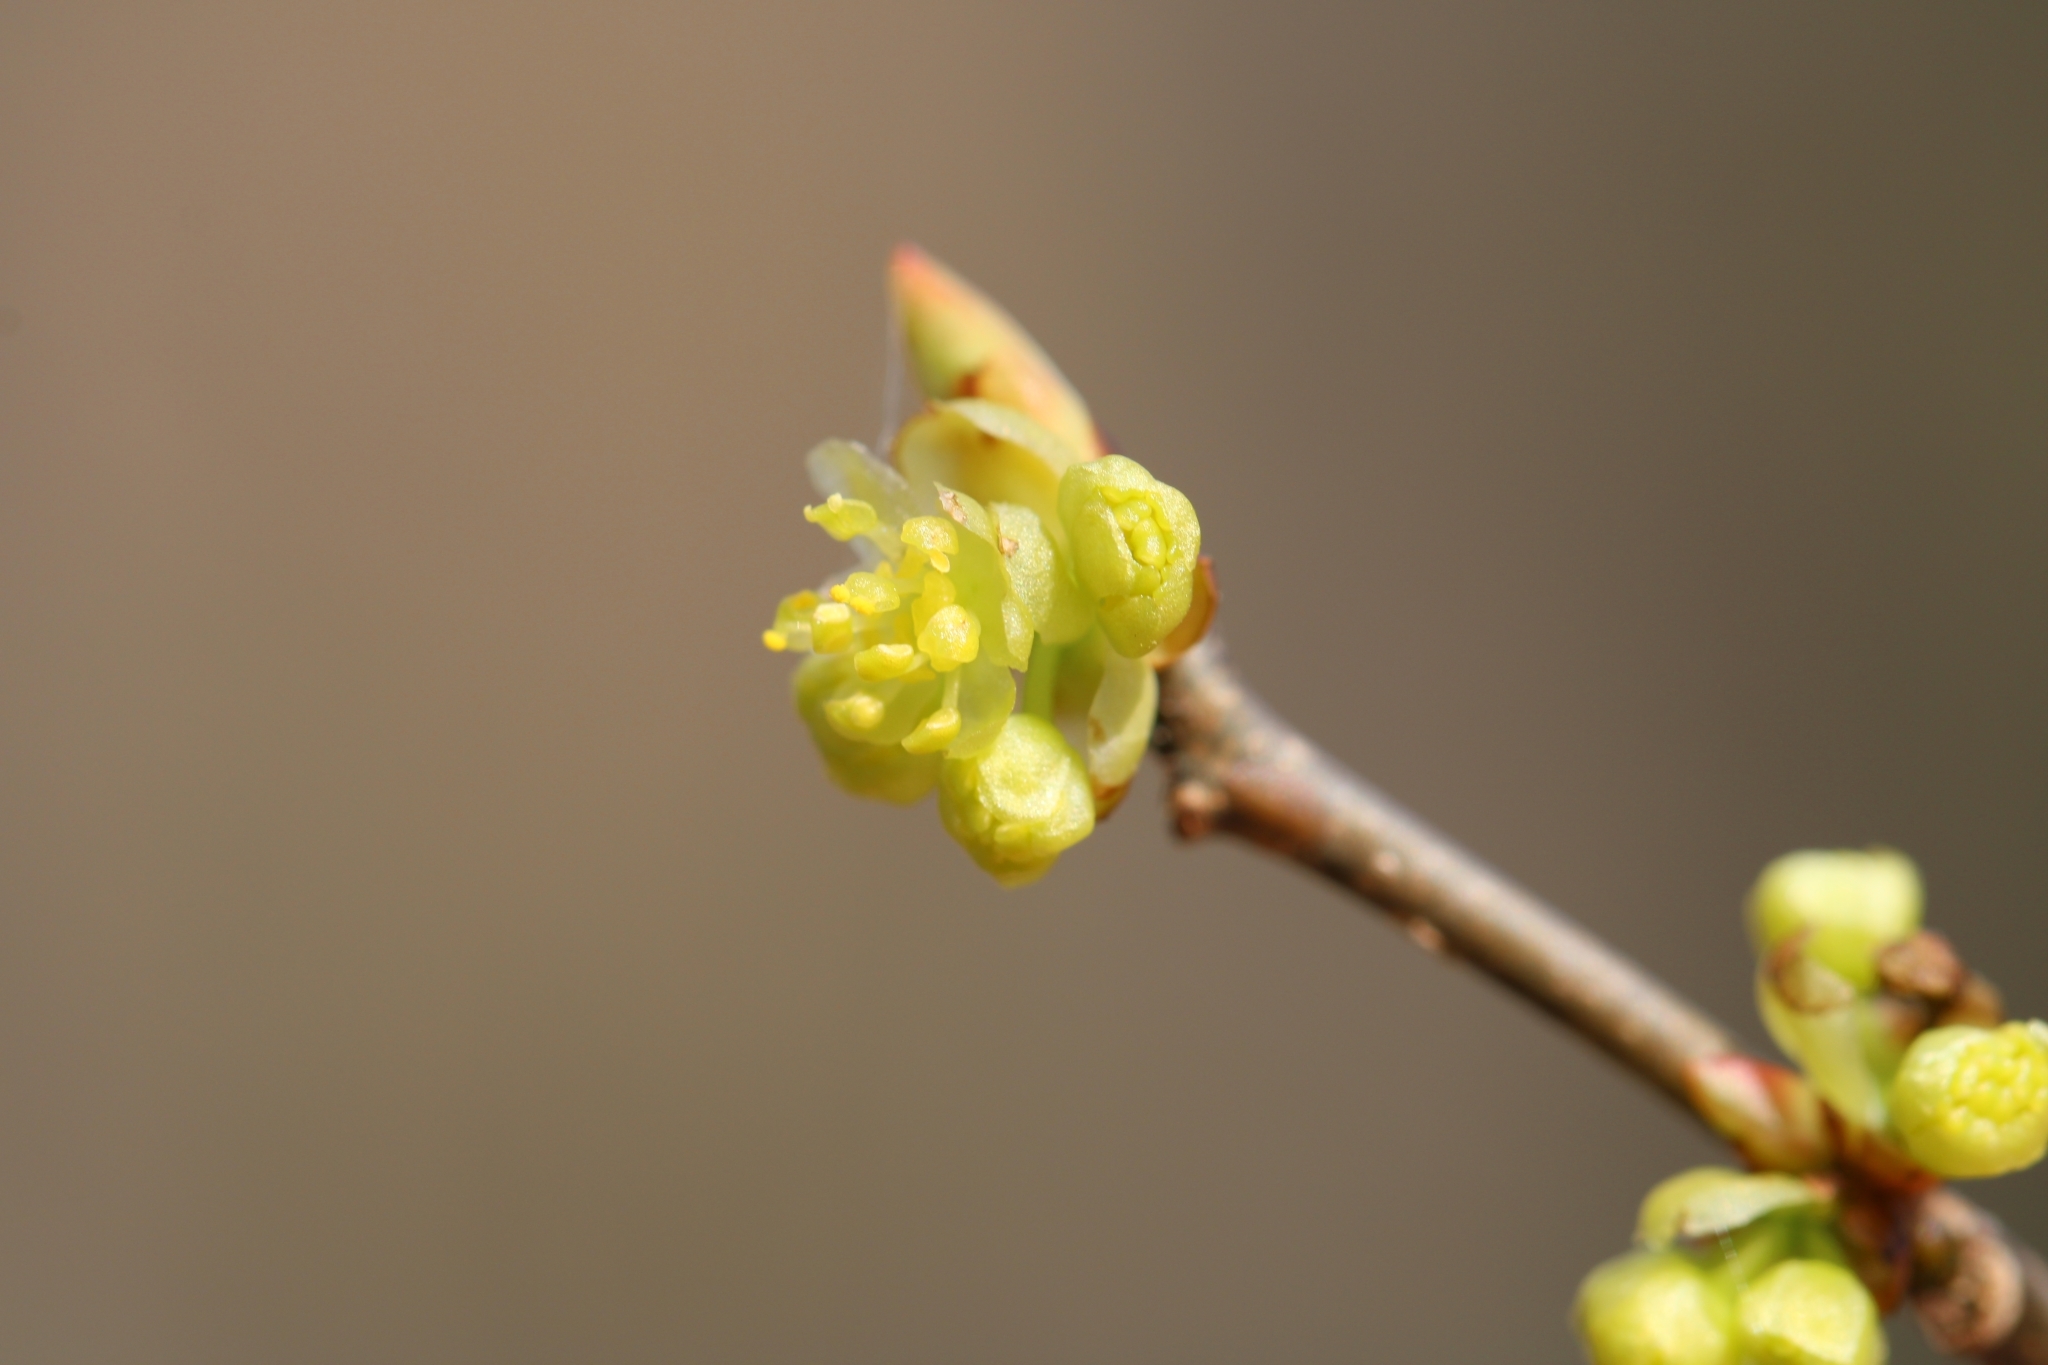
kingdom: Plantae
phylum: Tracheophyta
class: Magnoliopsida
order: Laurales
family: Lauraceae
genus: Lindera
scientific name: Lindera benzoin
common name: Spicebush
